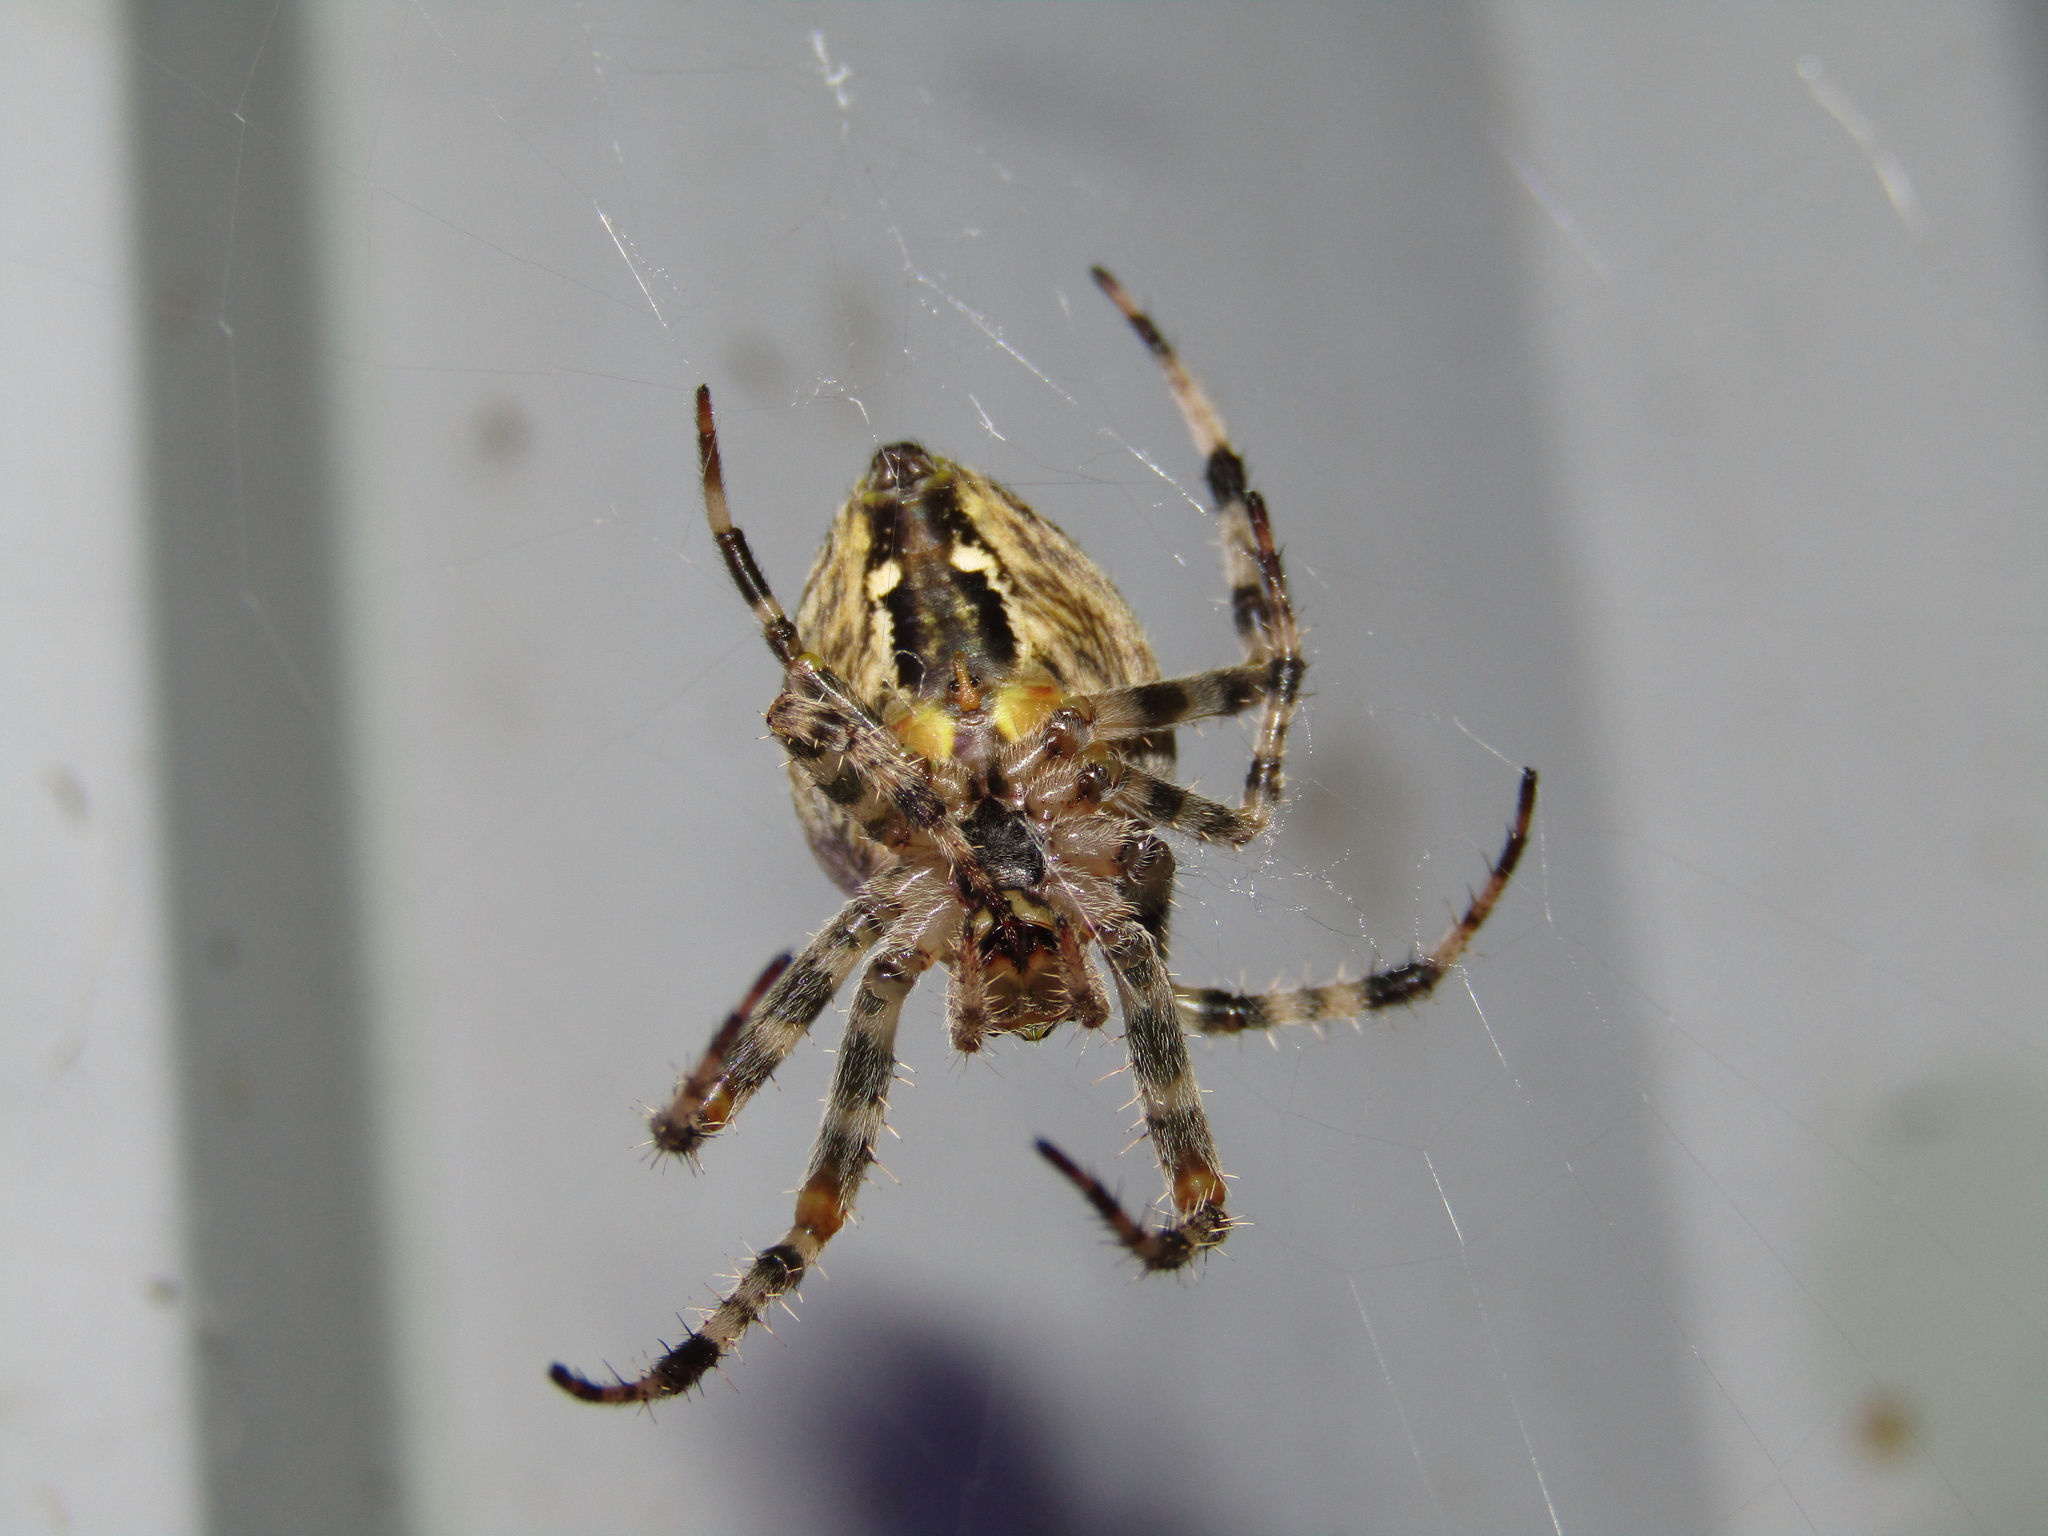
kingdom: Animalia
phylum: Arthropoda
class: Arachnida
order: Araneae
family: Araneidae
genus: Araneus
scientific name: Araneus diadematus
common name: Cross orbweaver
